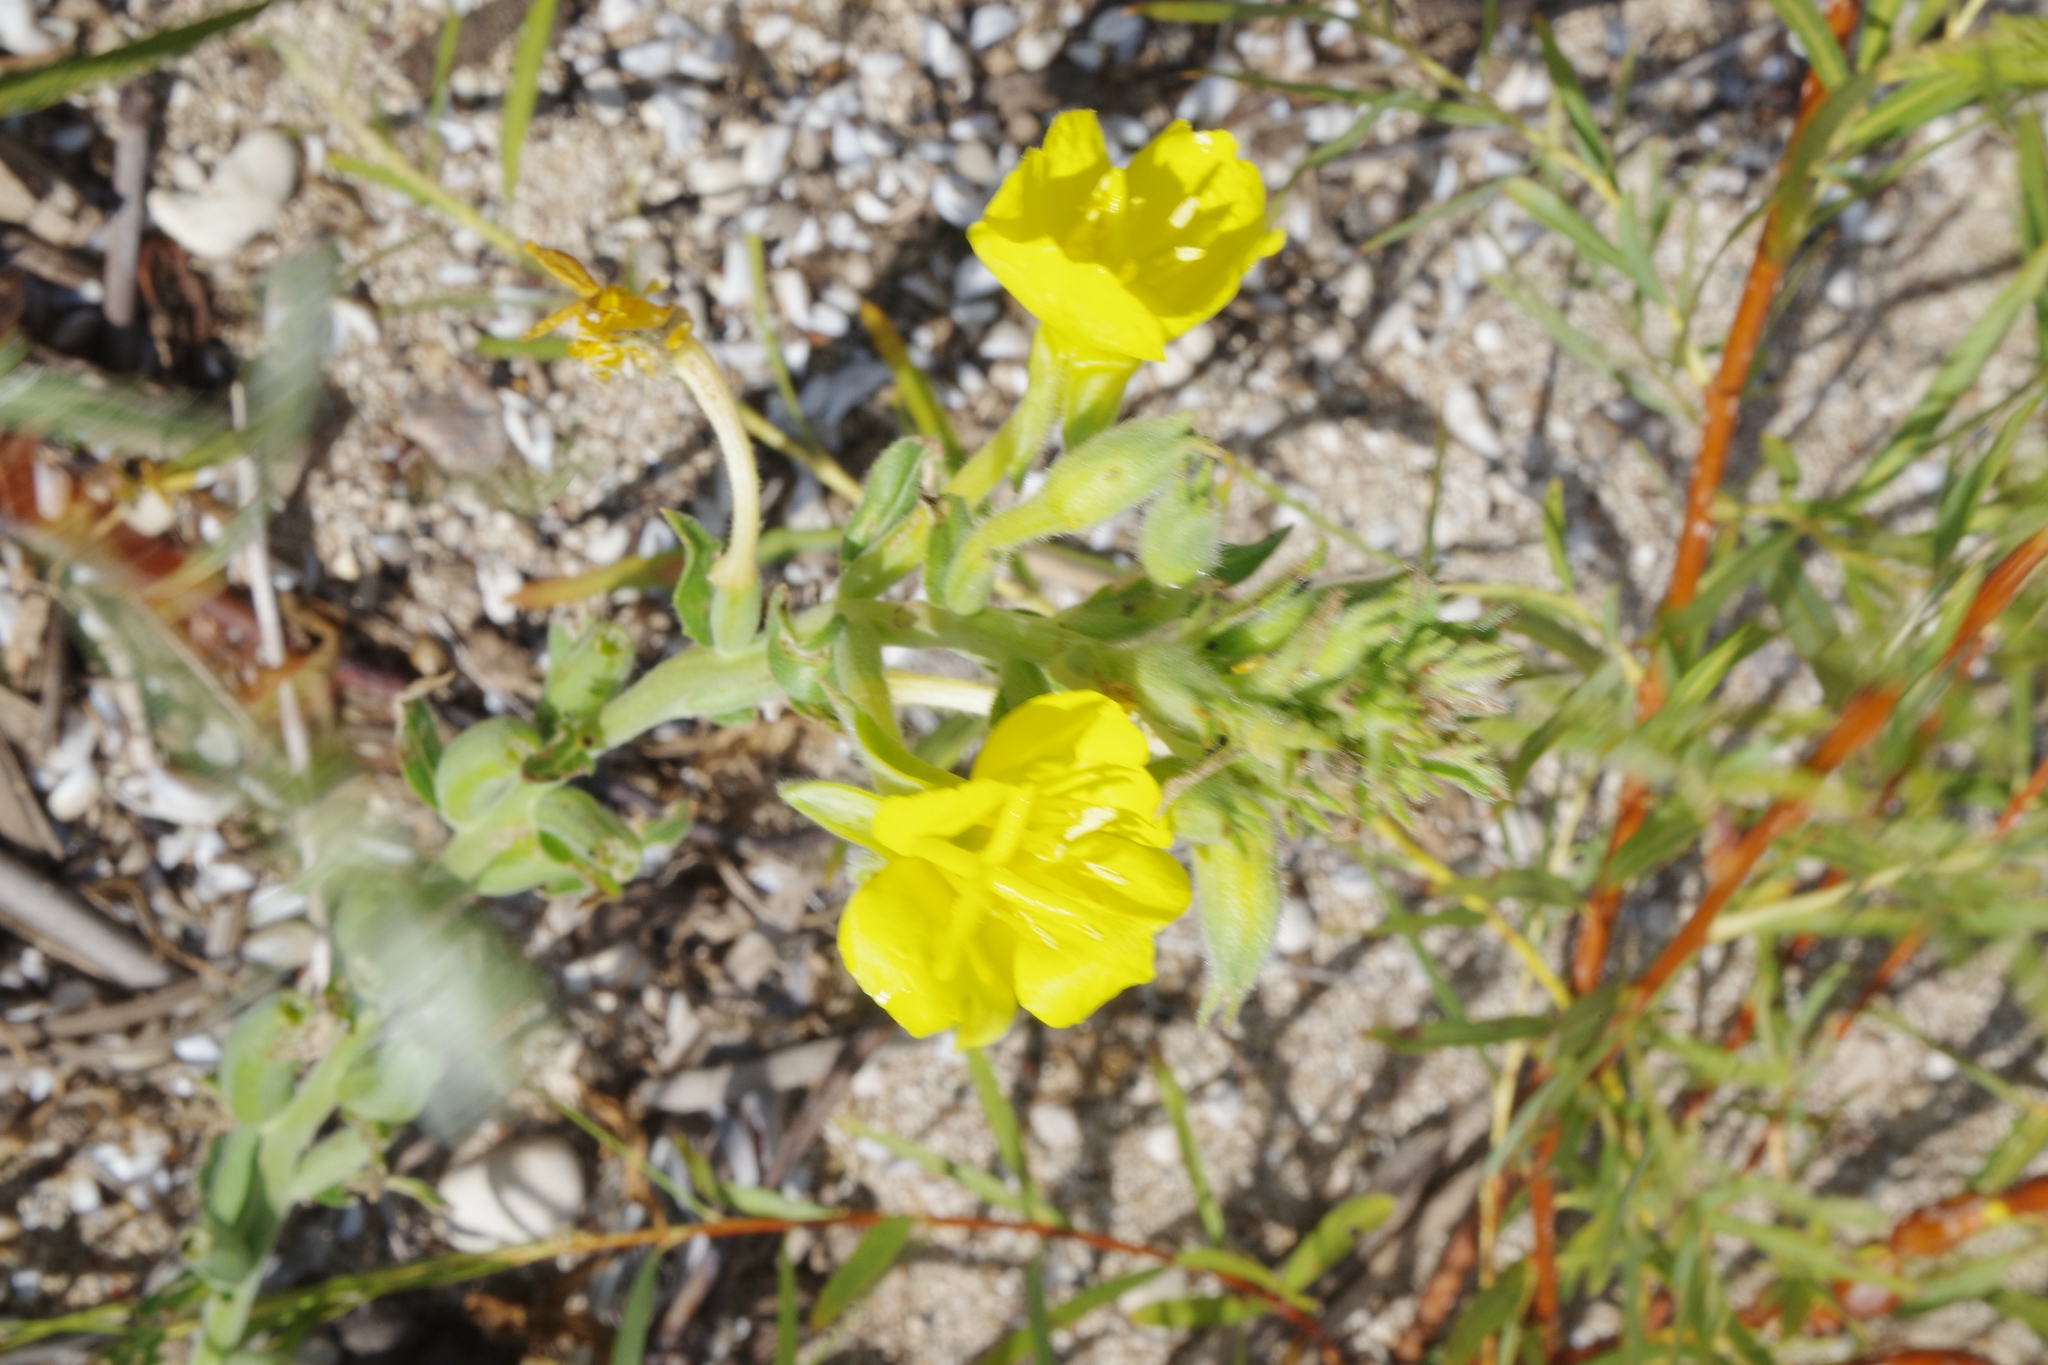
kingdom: Plantae
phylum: Tracheophyta
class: Magnoliopsida
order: Myrtales
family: Onagraceae
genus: Oenothera
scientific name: Oenothera biennis
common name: Common evening-primrose
